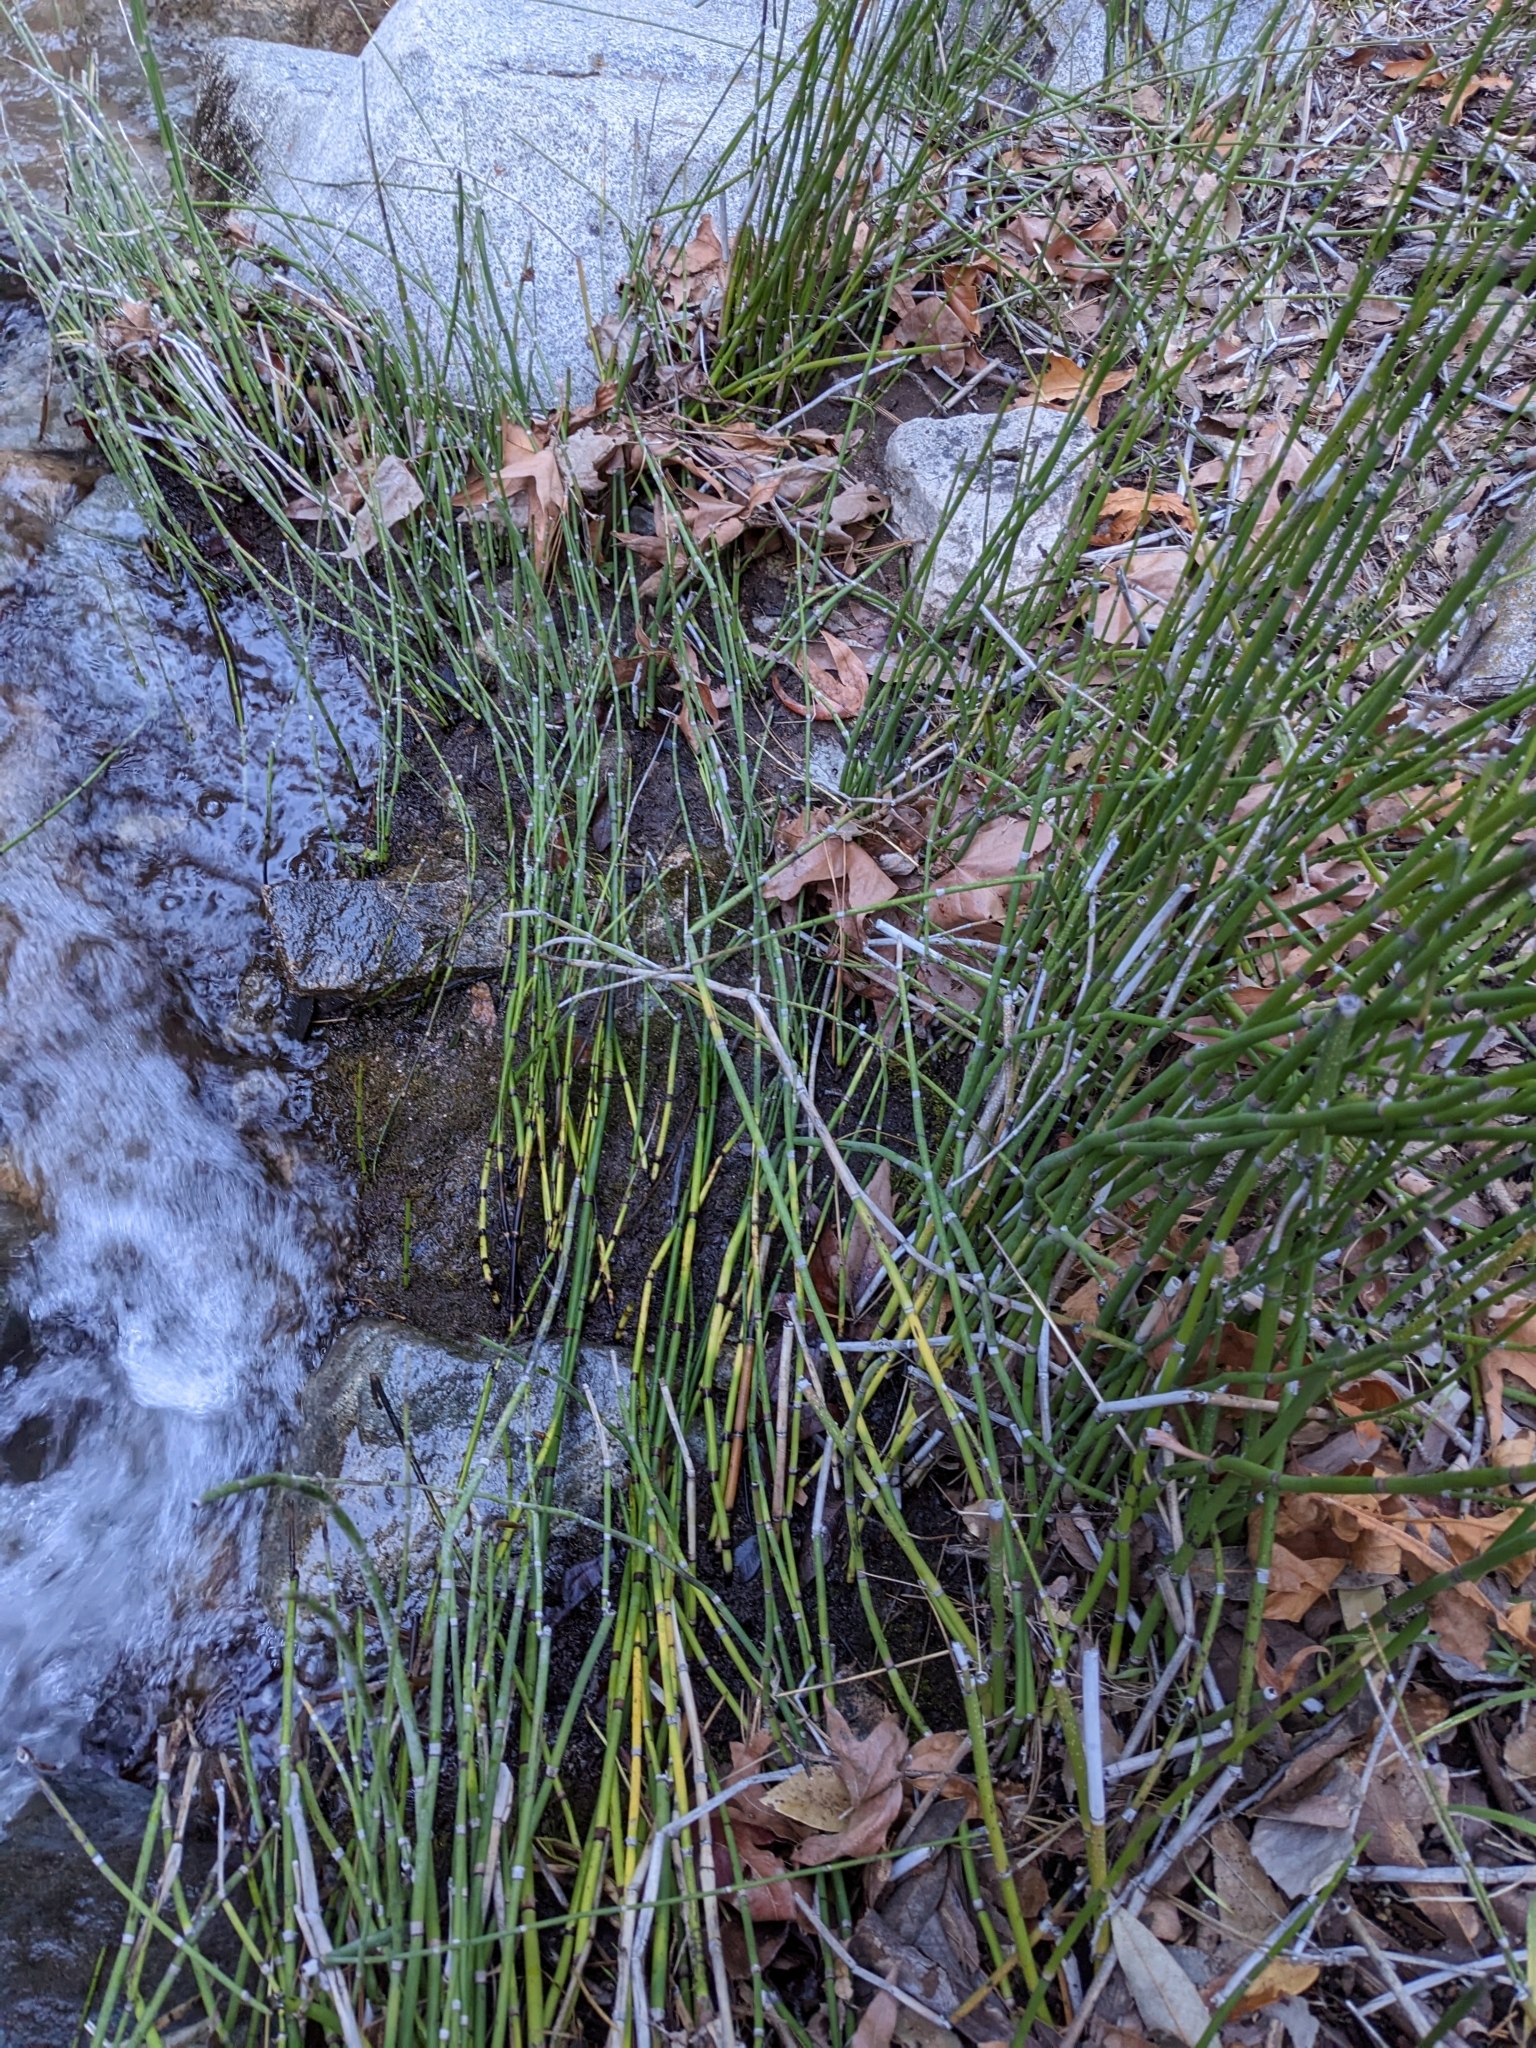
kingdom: Plantae
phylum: Tracheophyta
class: Polypodiopsida
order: Equisetales
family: Equisetaceae
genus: Equisetum
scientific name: Equisetum praealtum
